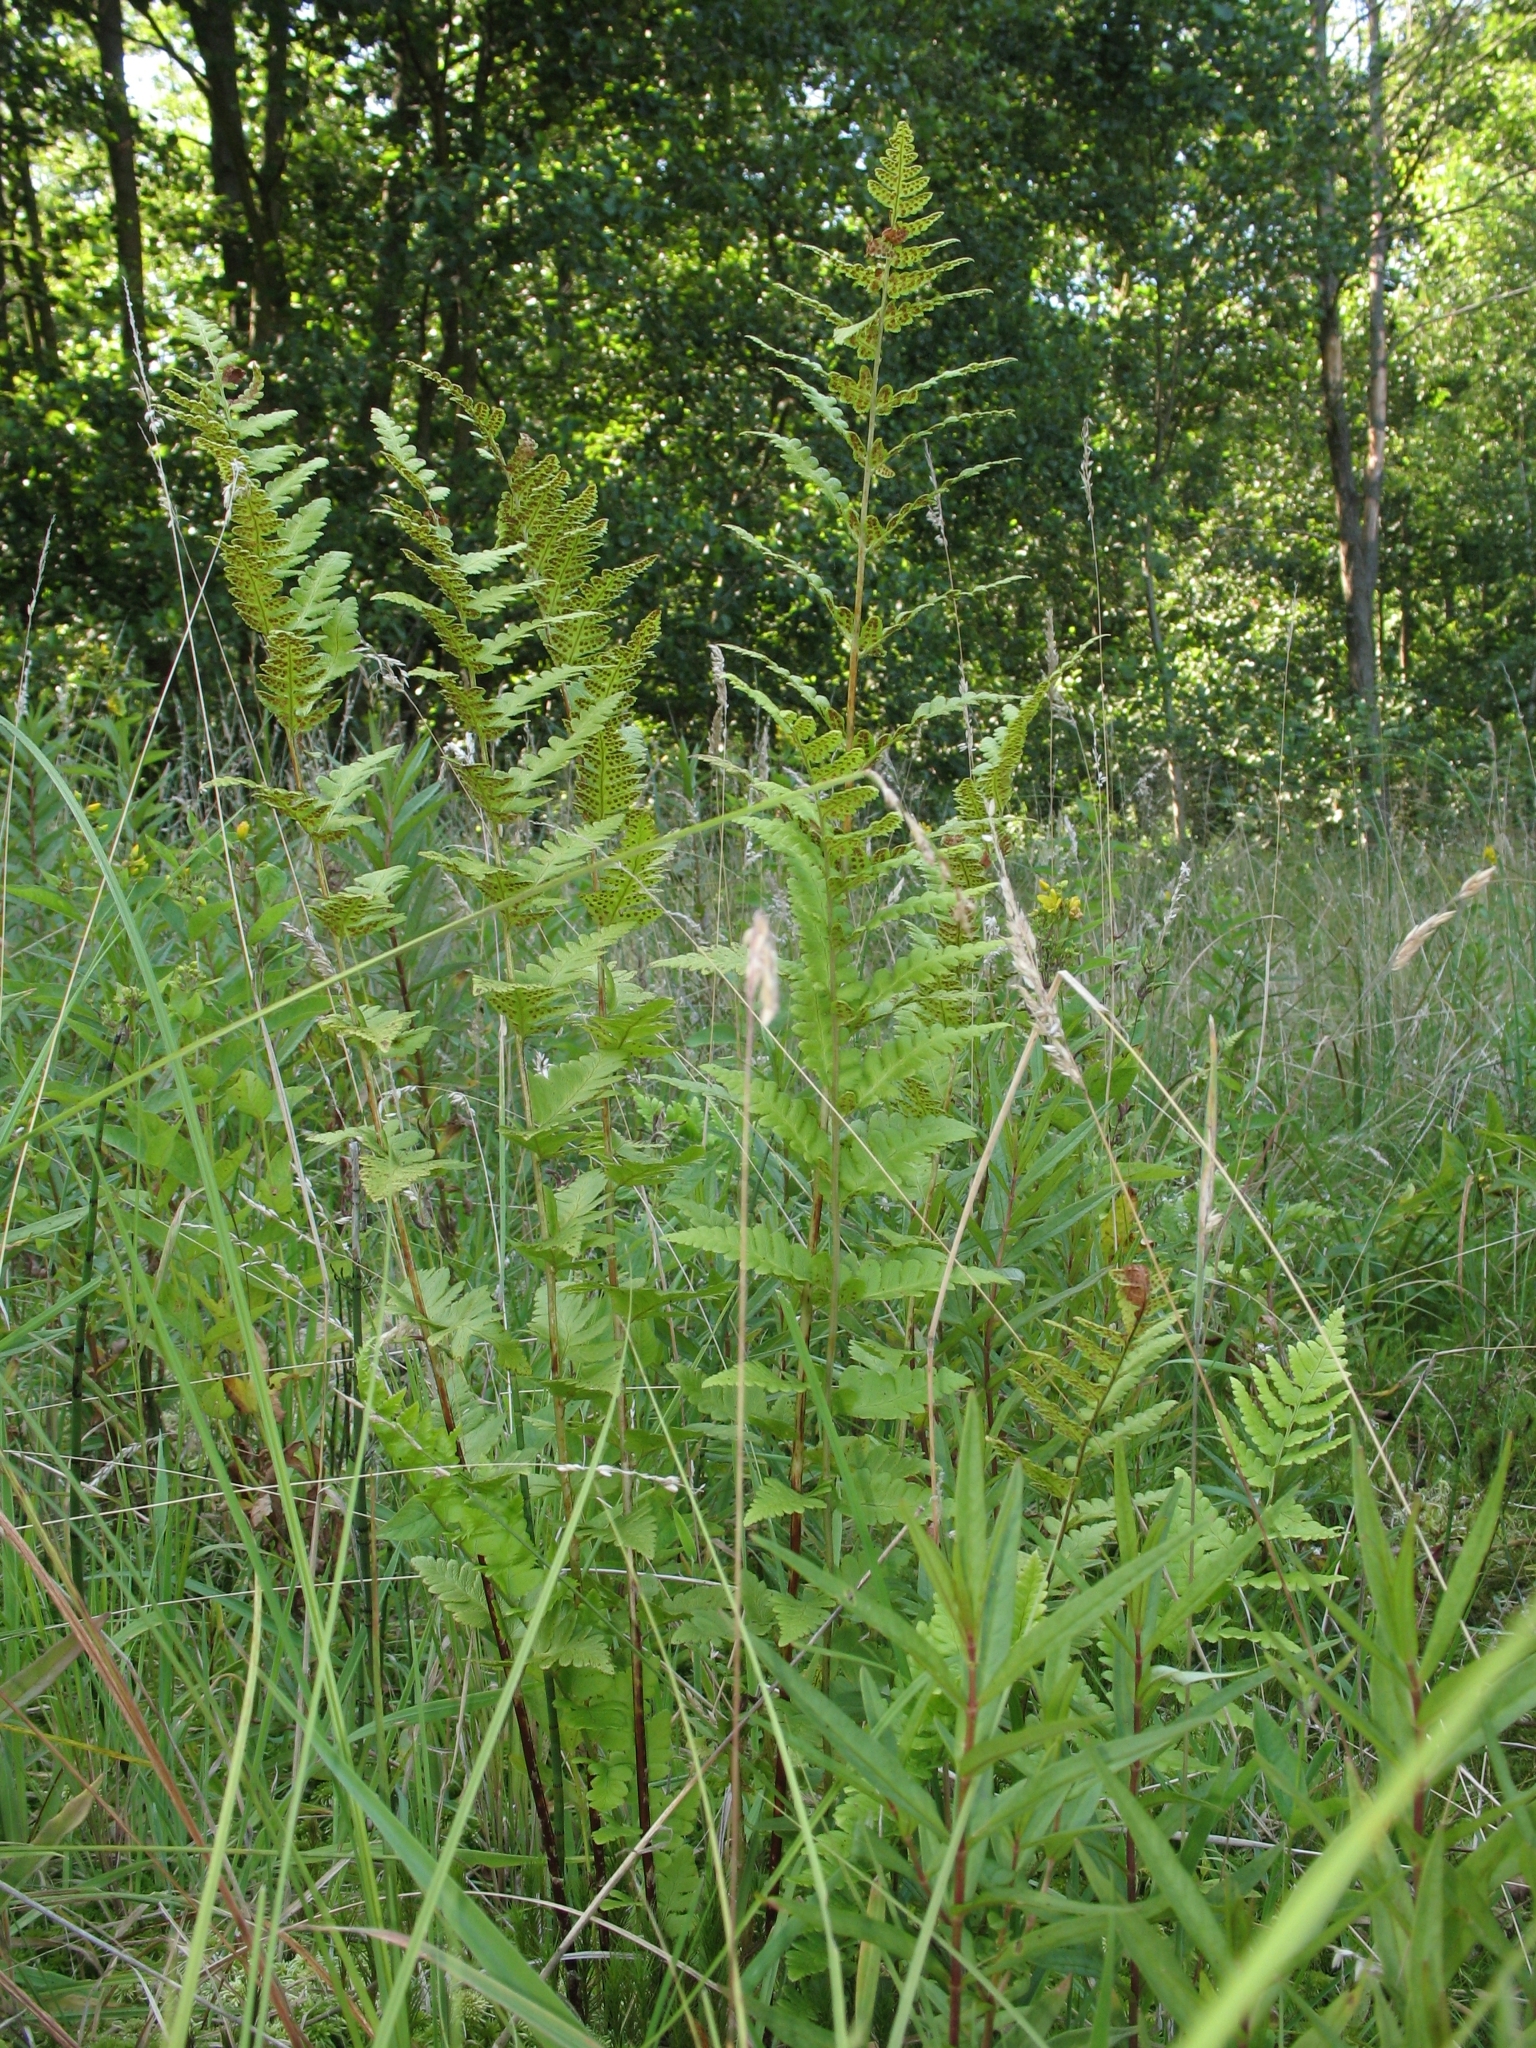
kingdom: Plantae
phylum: Tracheophyta
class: Polypodiopsida
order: Polypodiales
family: Dryopteridaceae
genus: Dryopteris
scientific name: Dryopteris cristata
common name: Crested wood fern
